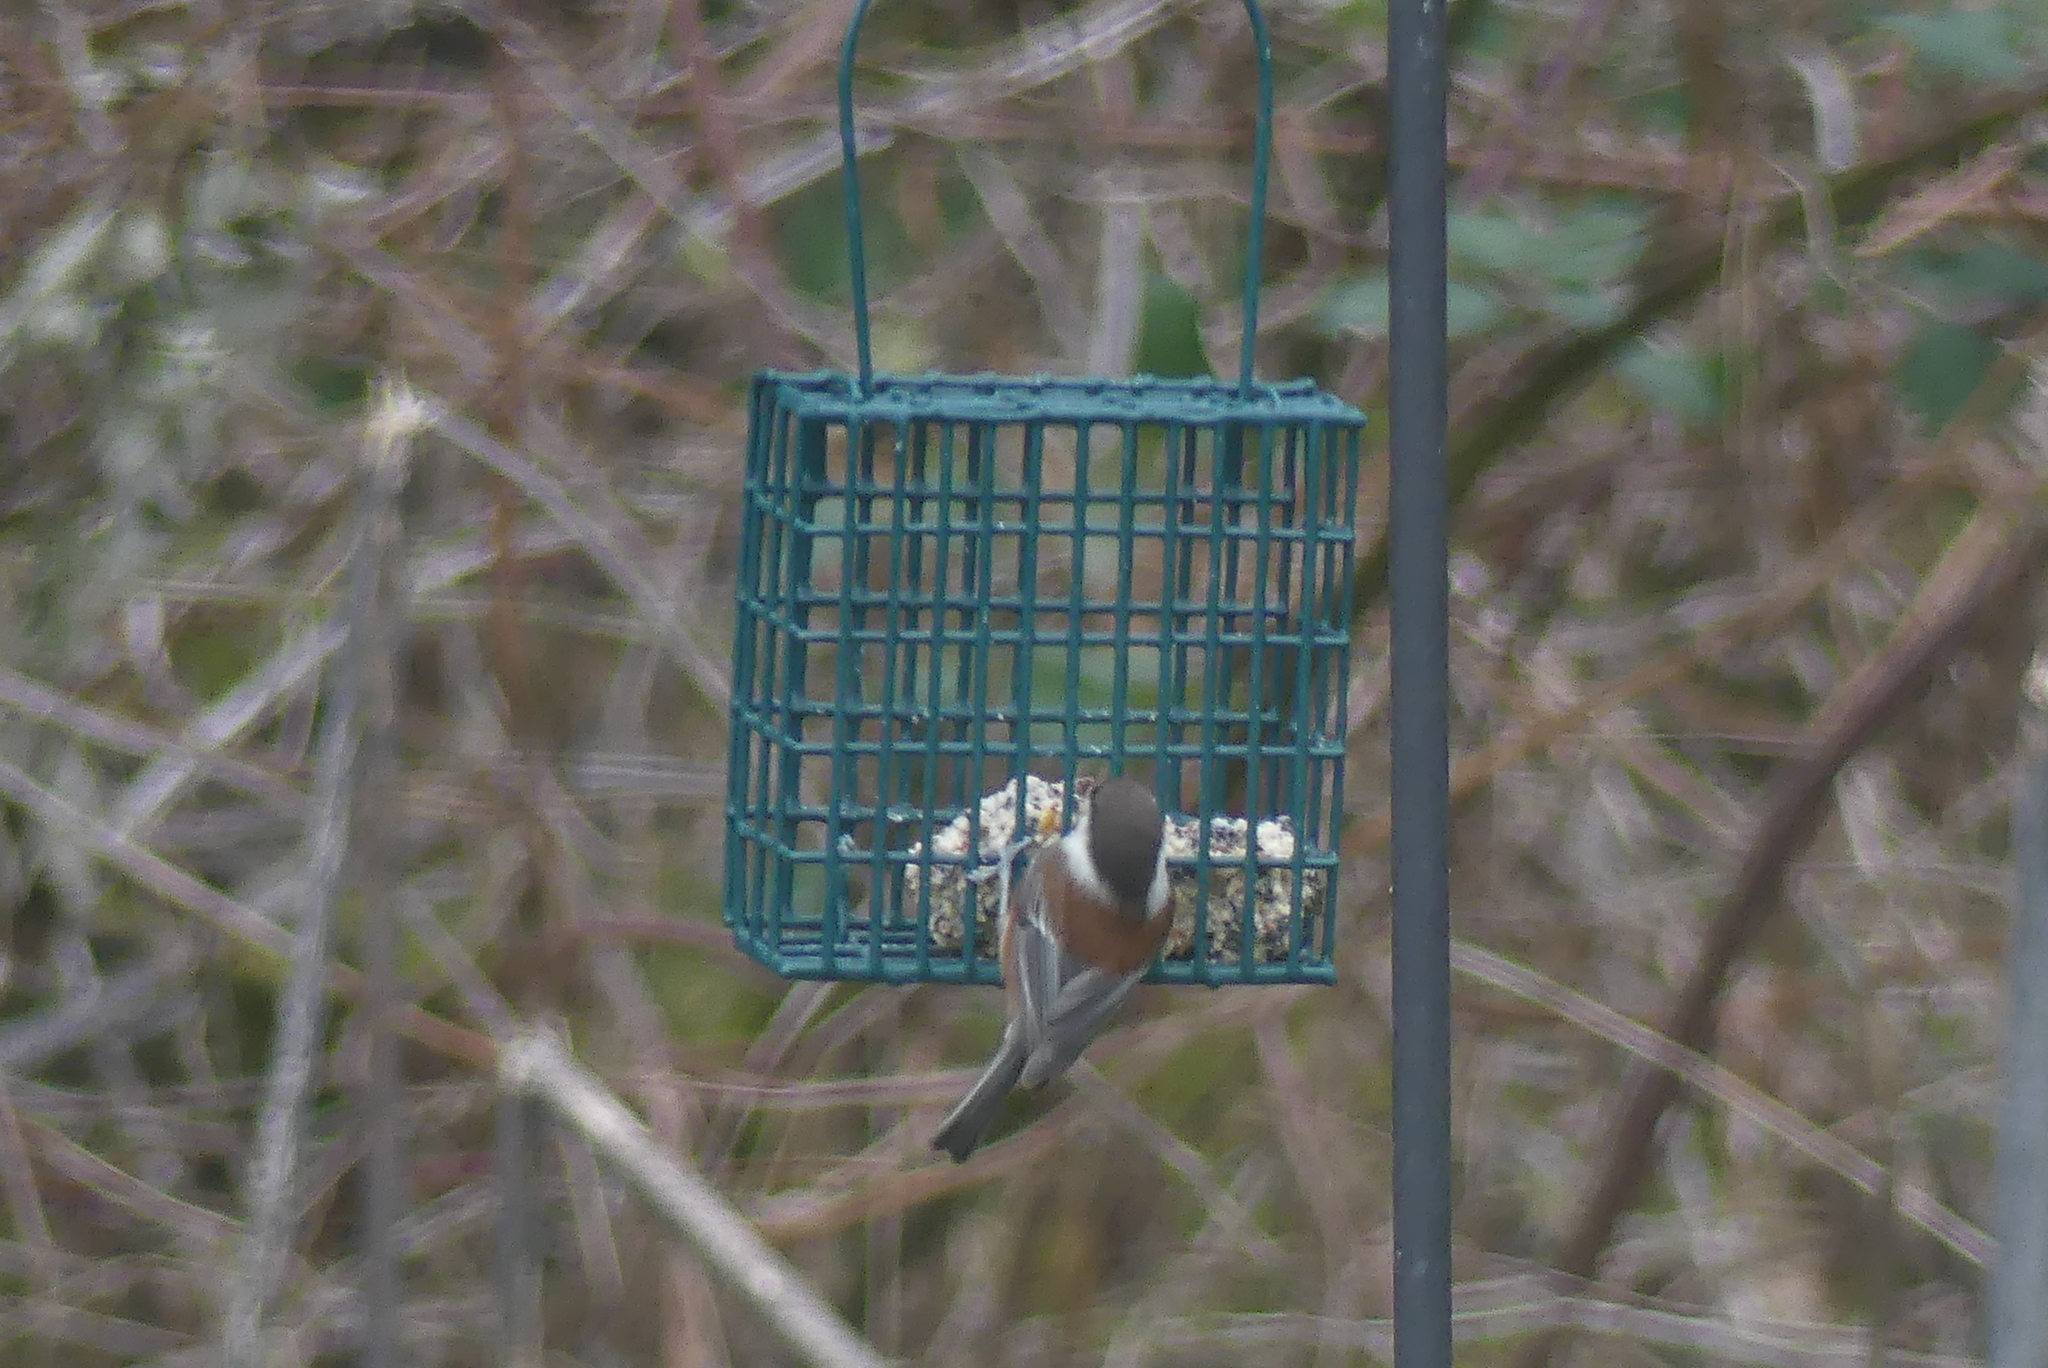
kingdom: Animalia
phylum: Chordata
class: Aves
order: Passeriformes
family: Paridae
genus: Poecile
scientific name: Poecile rufescens
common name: Chestnut-backed chickadee
